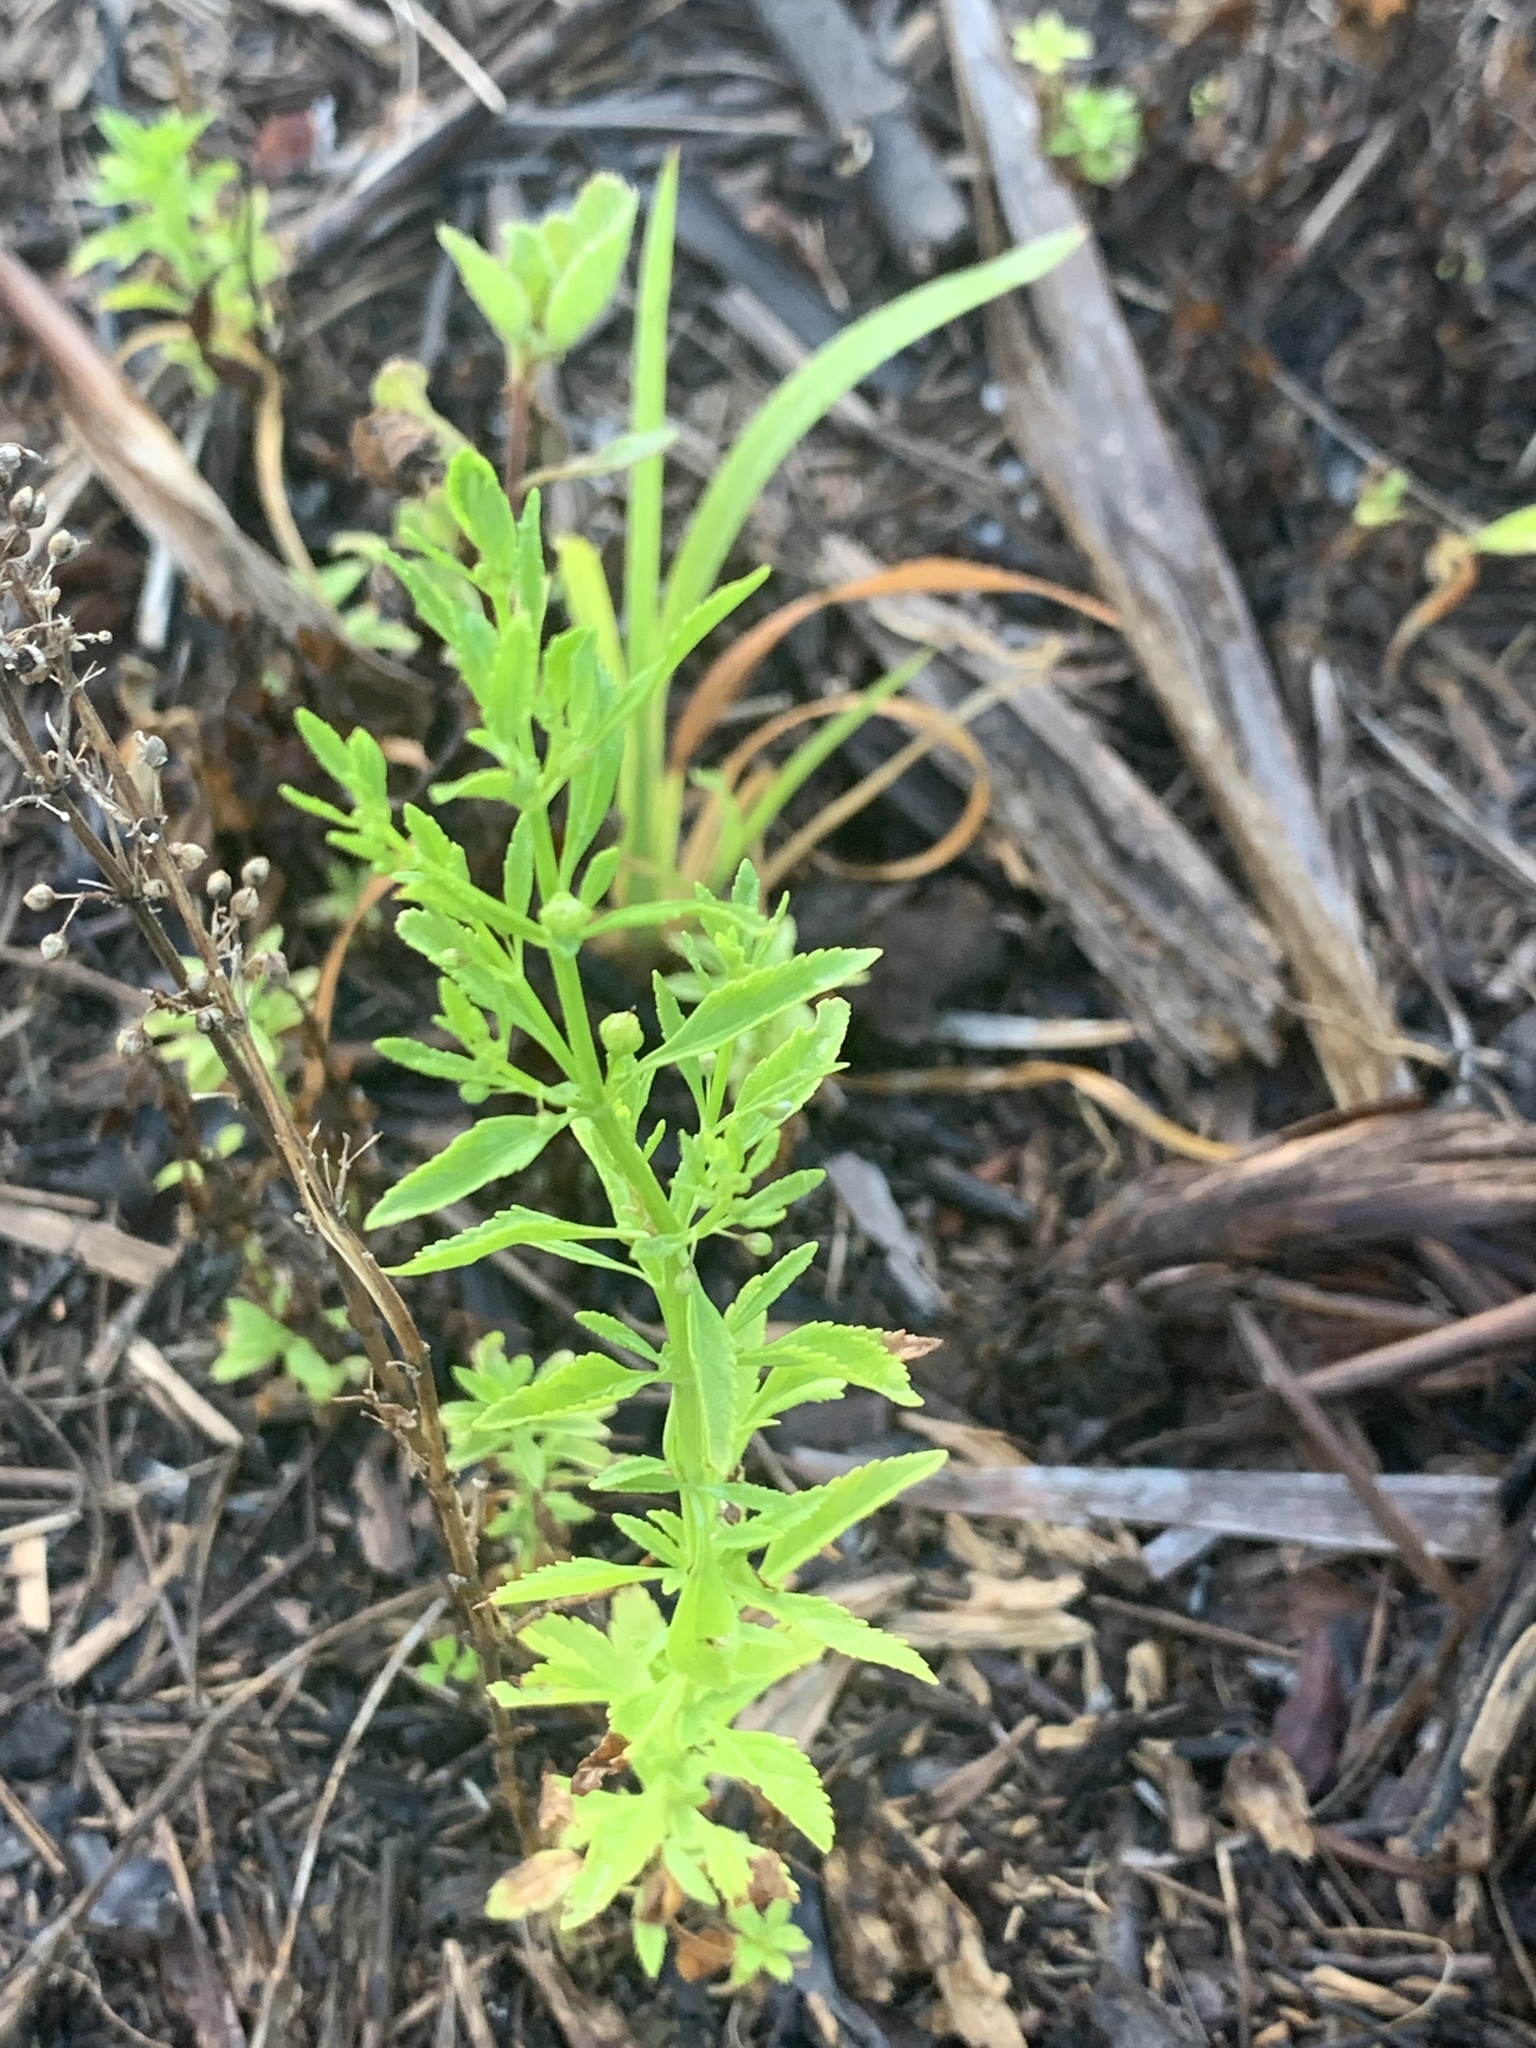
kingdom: Plantae
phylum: Tracheophyta
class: Magnoliopsida
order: Lamiales
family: Plantaginaceae
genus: Scoparia
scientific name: Scoparia dulcis
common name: Scoparia-weed
